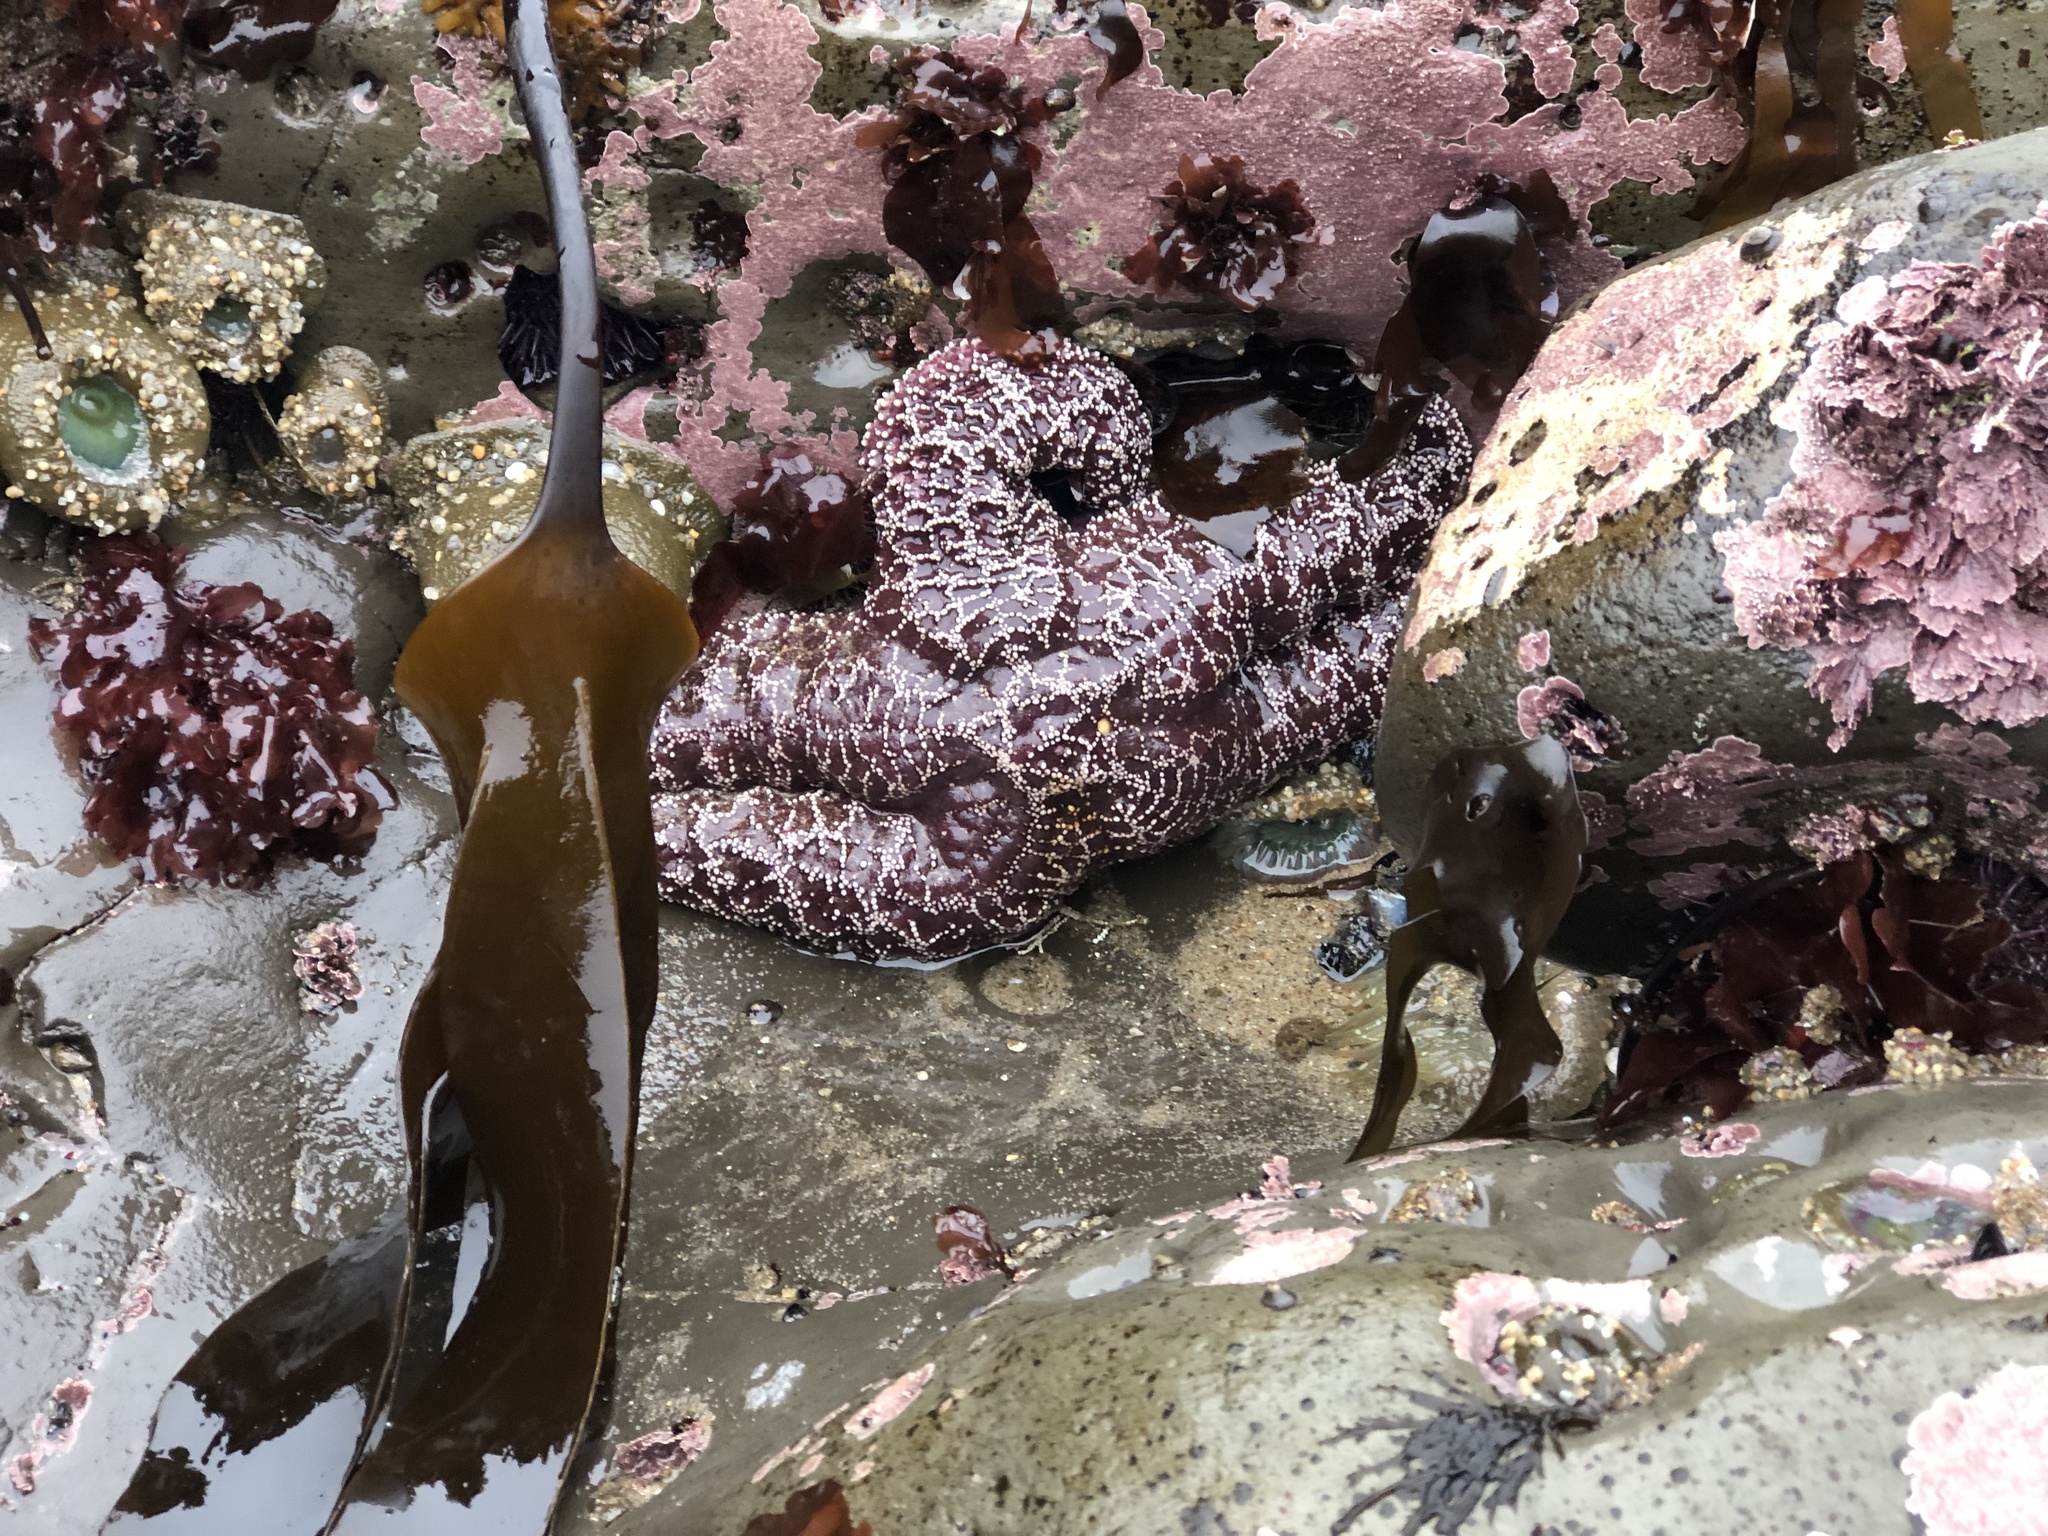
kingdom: Animalia
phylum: Echinodermata
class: Asteroidea
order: Forcipulatida
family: Asteriidae
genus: Pisaster
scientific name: Pisaster ochraceus
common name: Ochre stars
